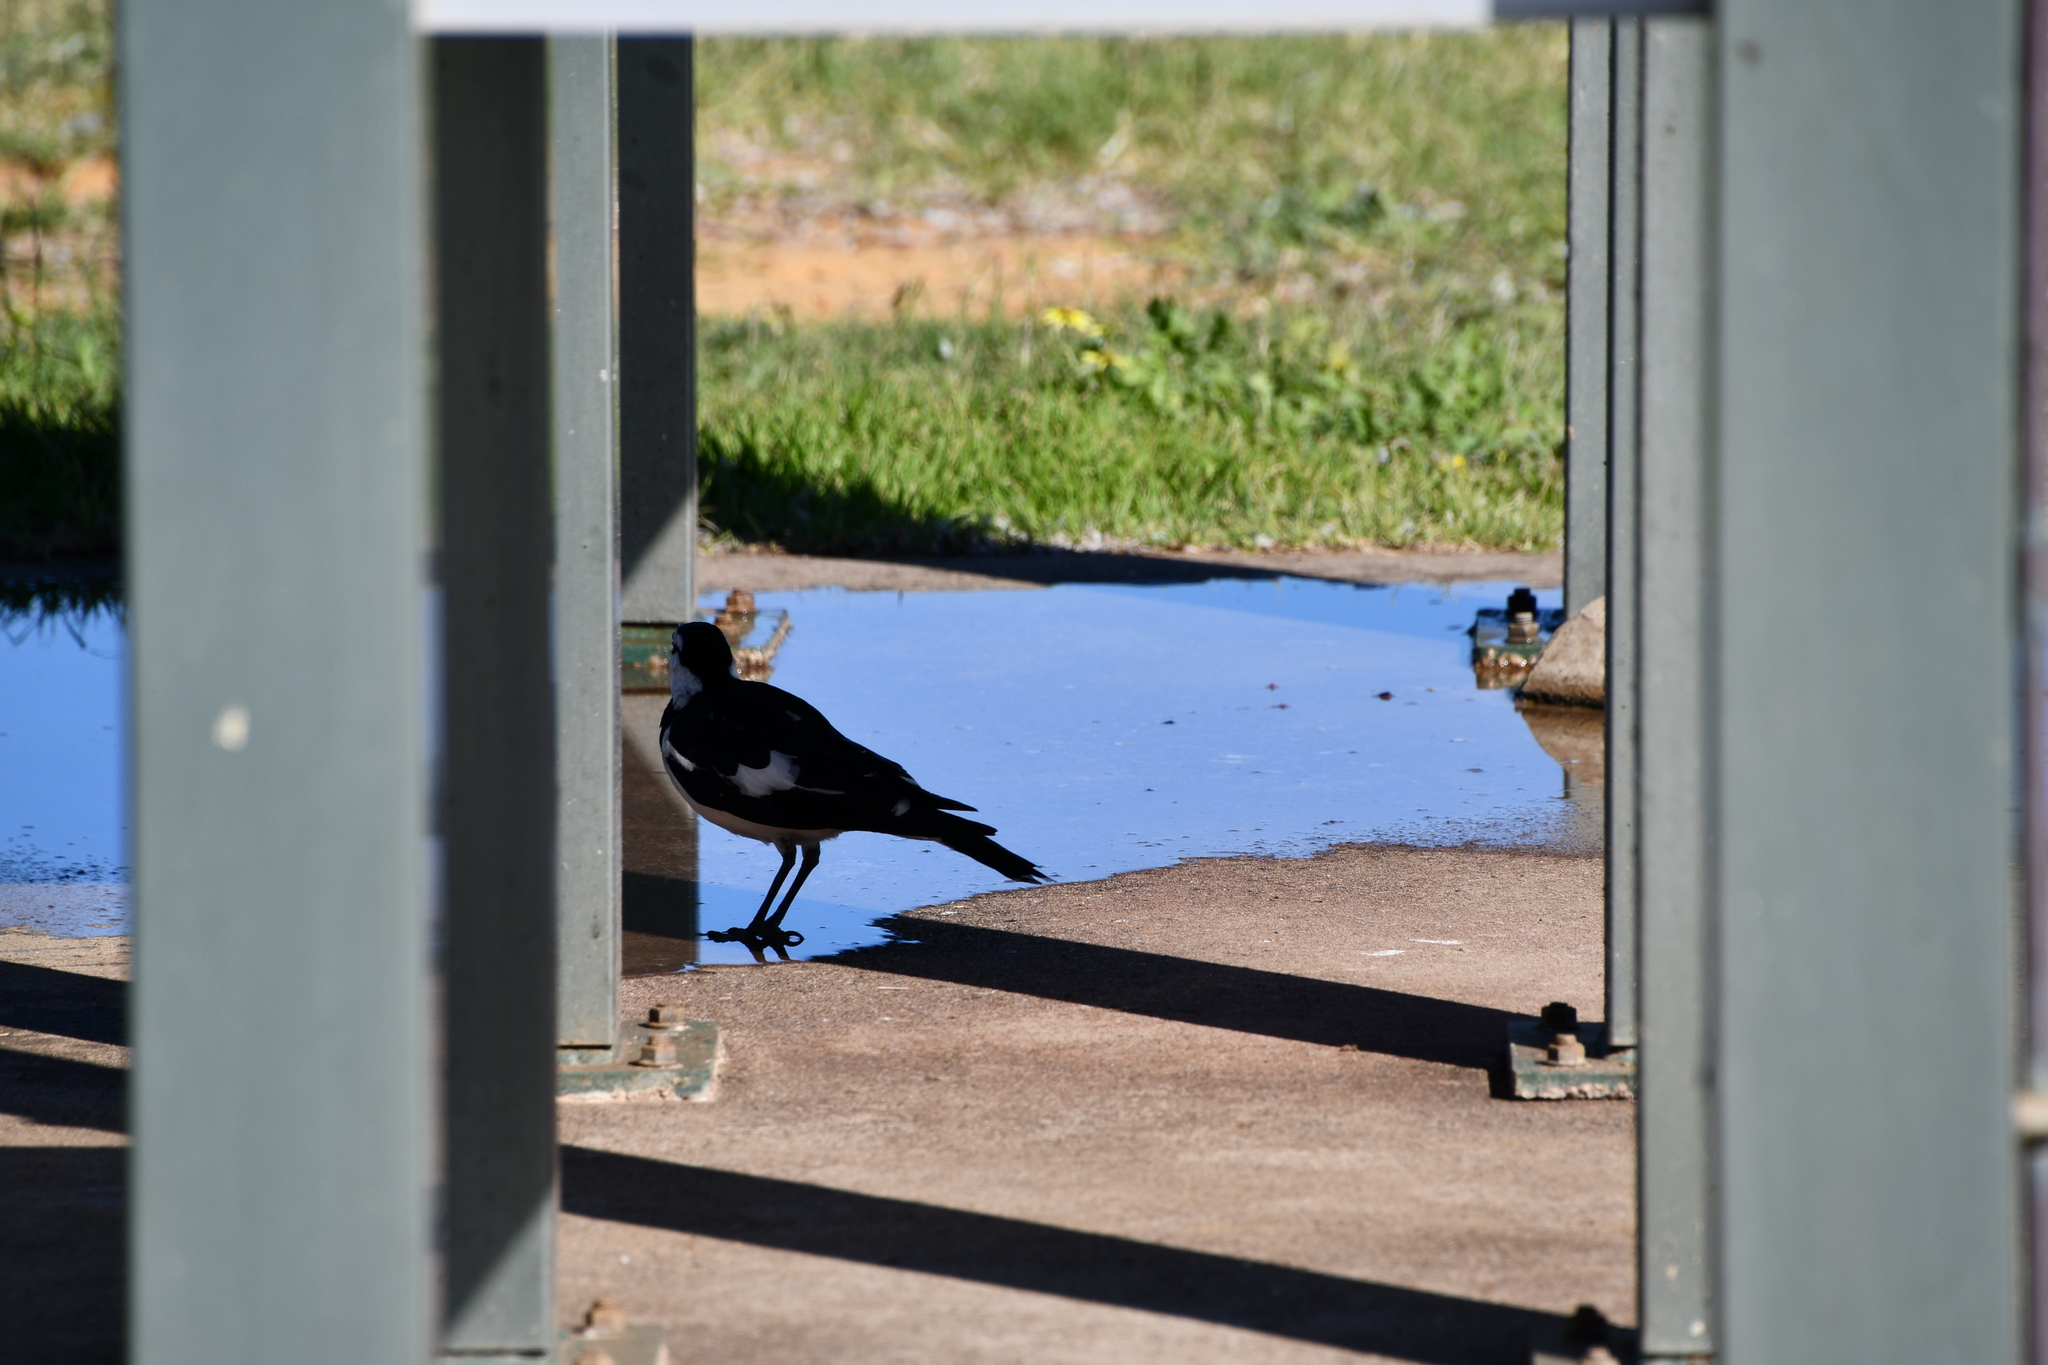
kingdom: Animalia
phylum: Chordata
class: Aves
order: Passeriformes
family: Monarchidae
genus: Grallina
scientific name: Grallina cyanoleuca
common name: Magpie-lark
